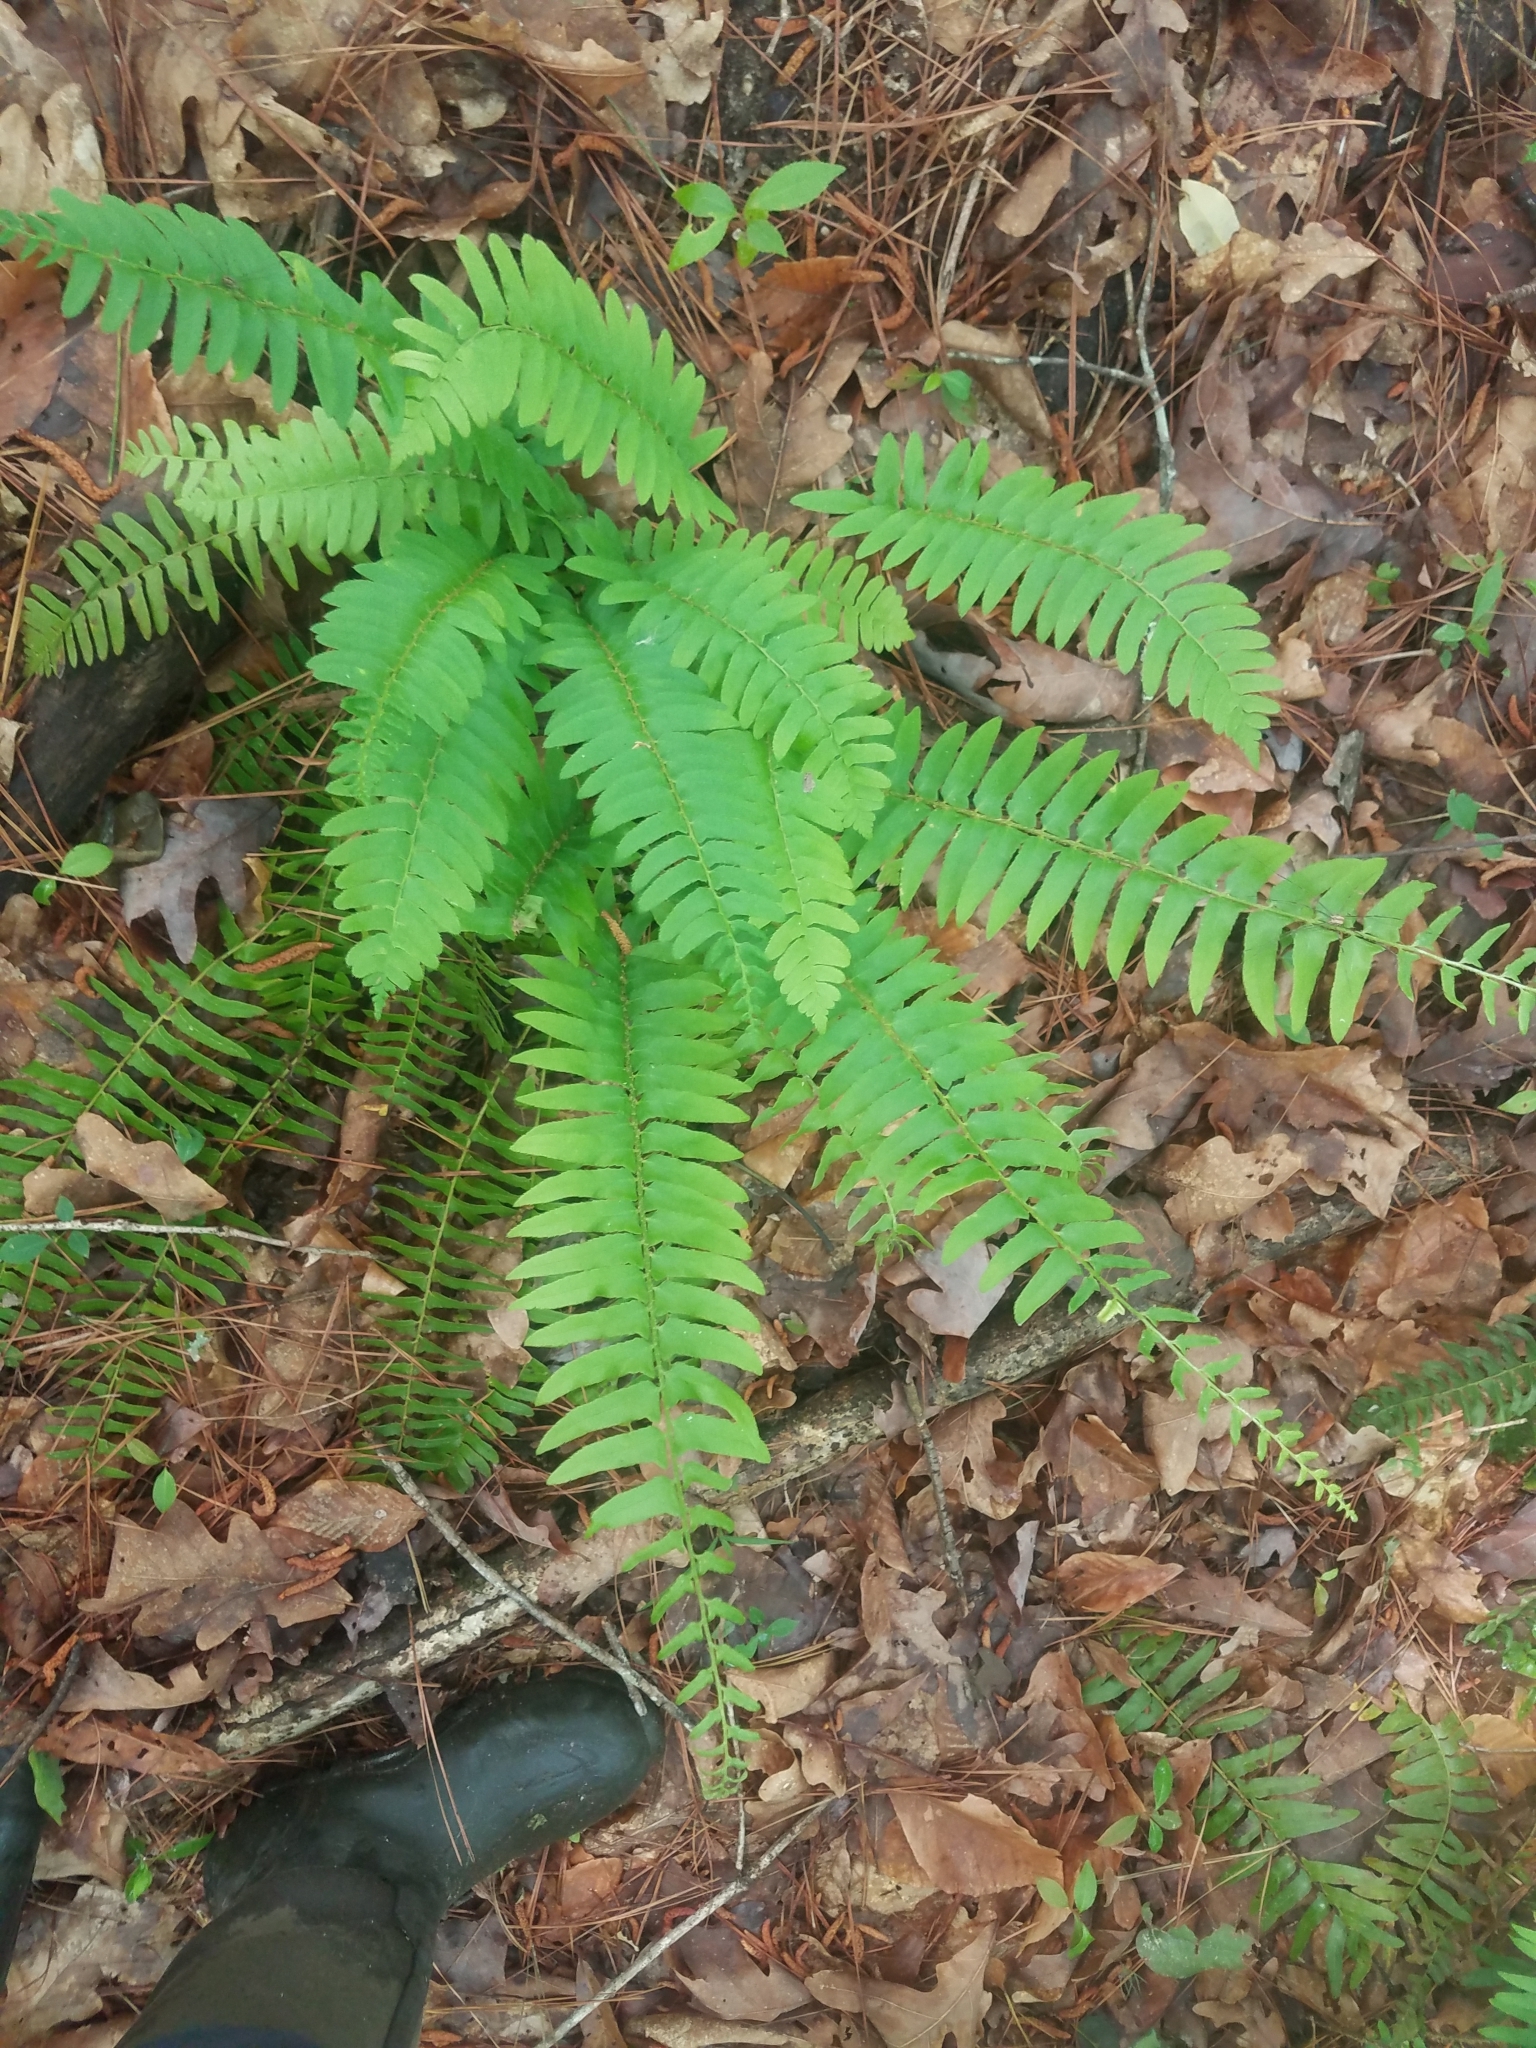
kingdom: Plantae
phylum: Tracheophyta
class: Polypodiopsida
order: Polypodiales
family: Dryopteridaceae
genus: Polystichum
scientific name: Polystichum acrostichoides
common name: Christmas fern
